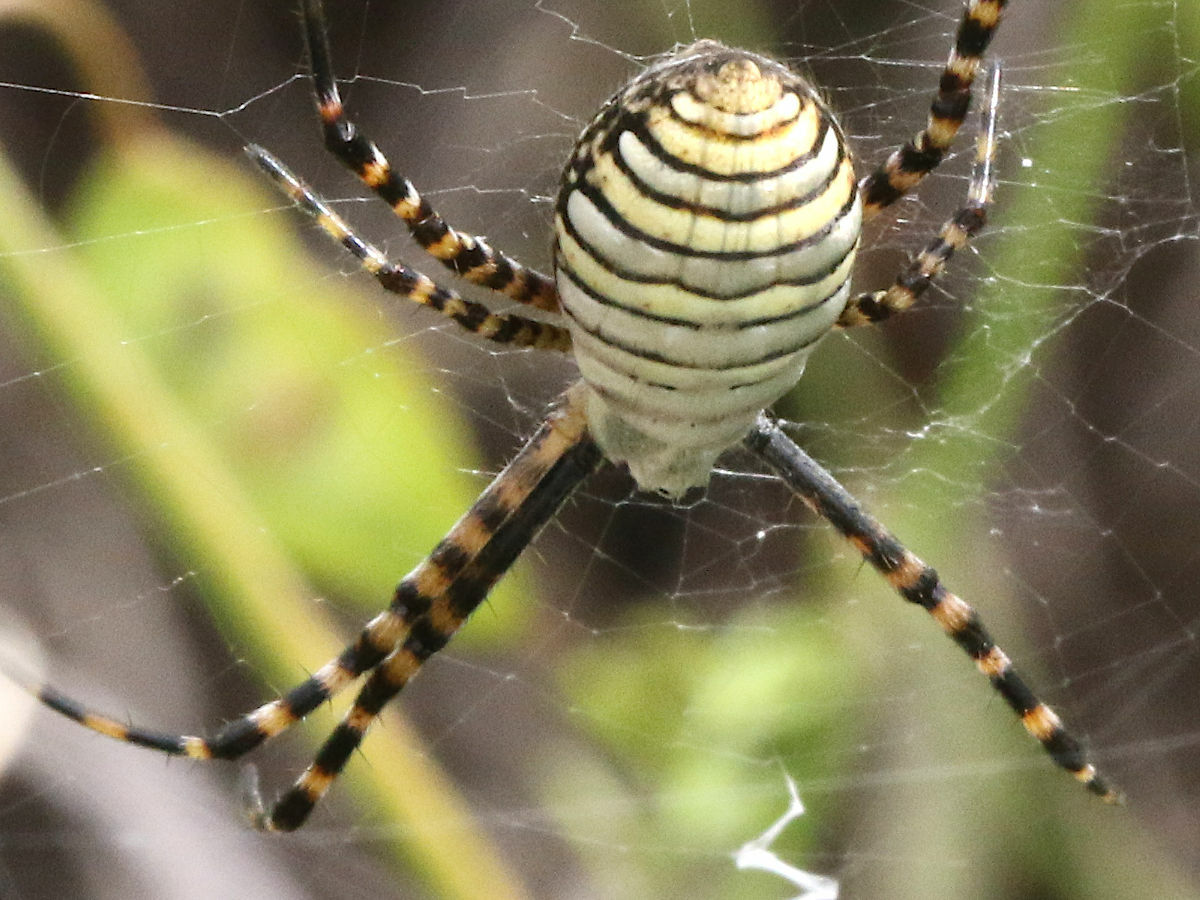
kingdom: Animalia
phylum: Arthropoda
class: Arachnida
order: Araneae
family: Araneidae
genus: Argiope
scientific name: Argiope trifasciata
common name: Banded garden spider
